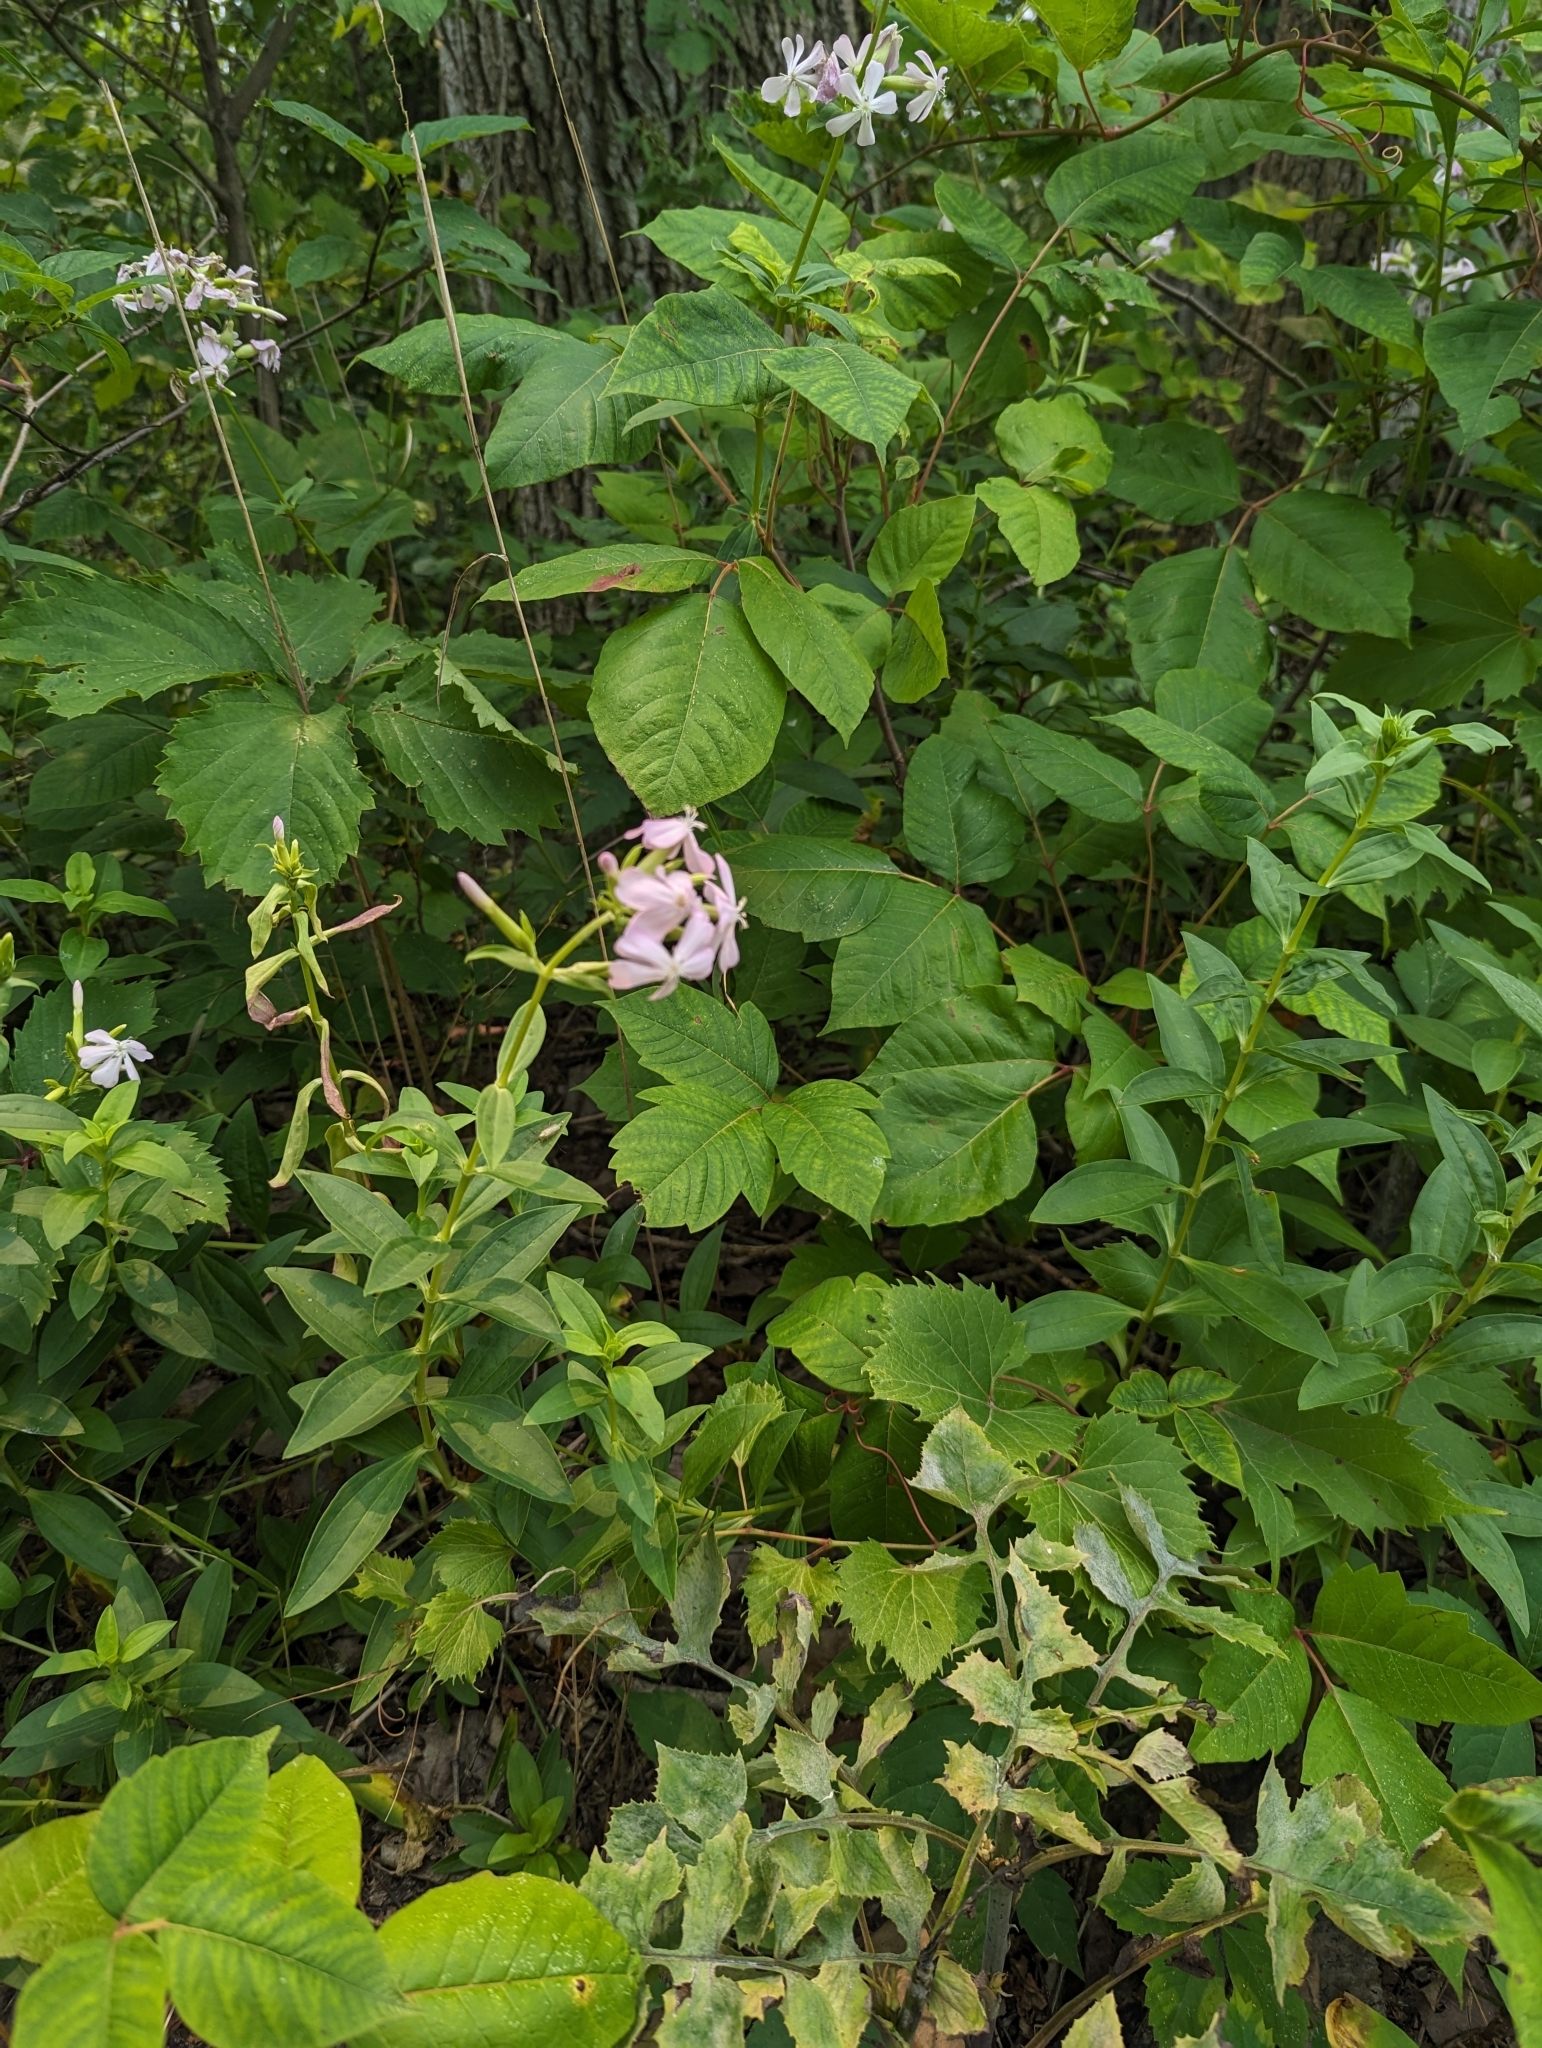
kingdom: Plantae
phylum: Tracheophyta
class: Magnoliopsida
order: Caryophyllales
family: Caryophyllaceae
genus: Saponaria
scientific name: Saponaria officinalis
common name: Soapwort
